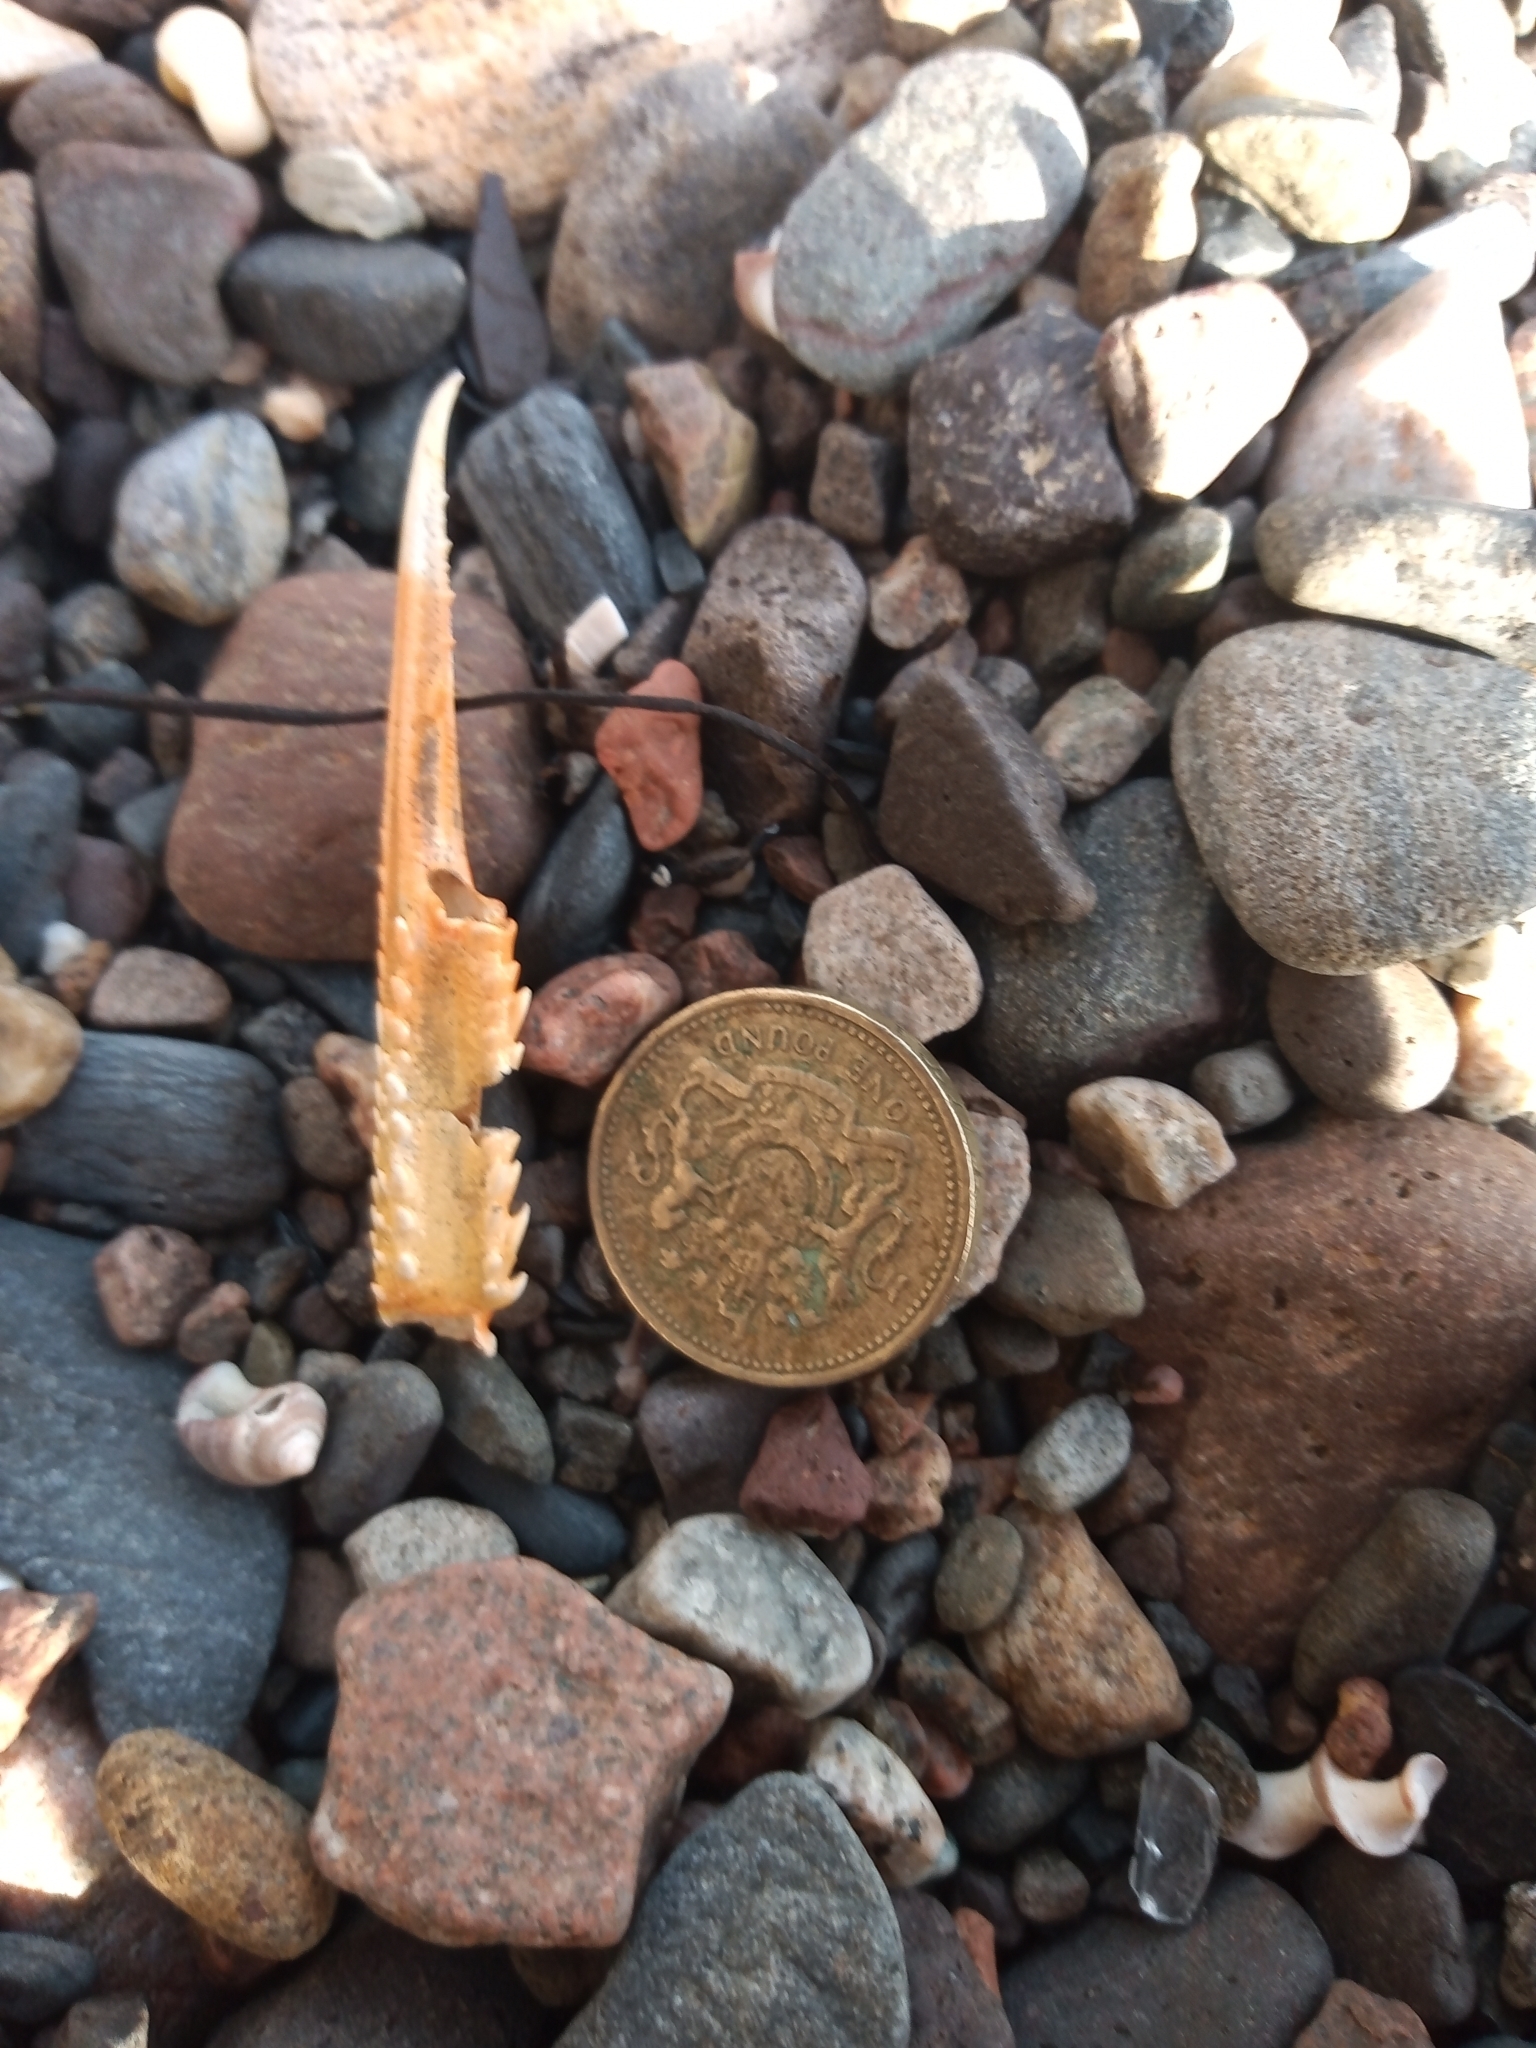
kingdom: Animalia
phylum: Arthropoda
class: Malacostraca
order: Decapoda
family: Nephropidae
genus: Nephrops
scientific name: Nephrops norvegicus
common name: Norway lobster
